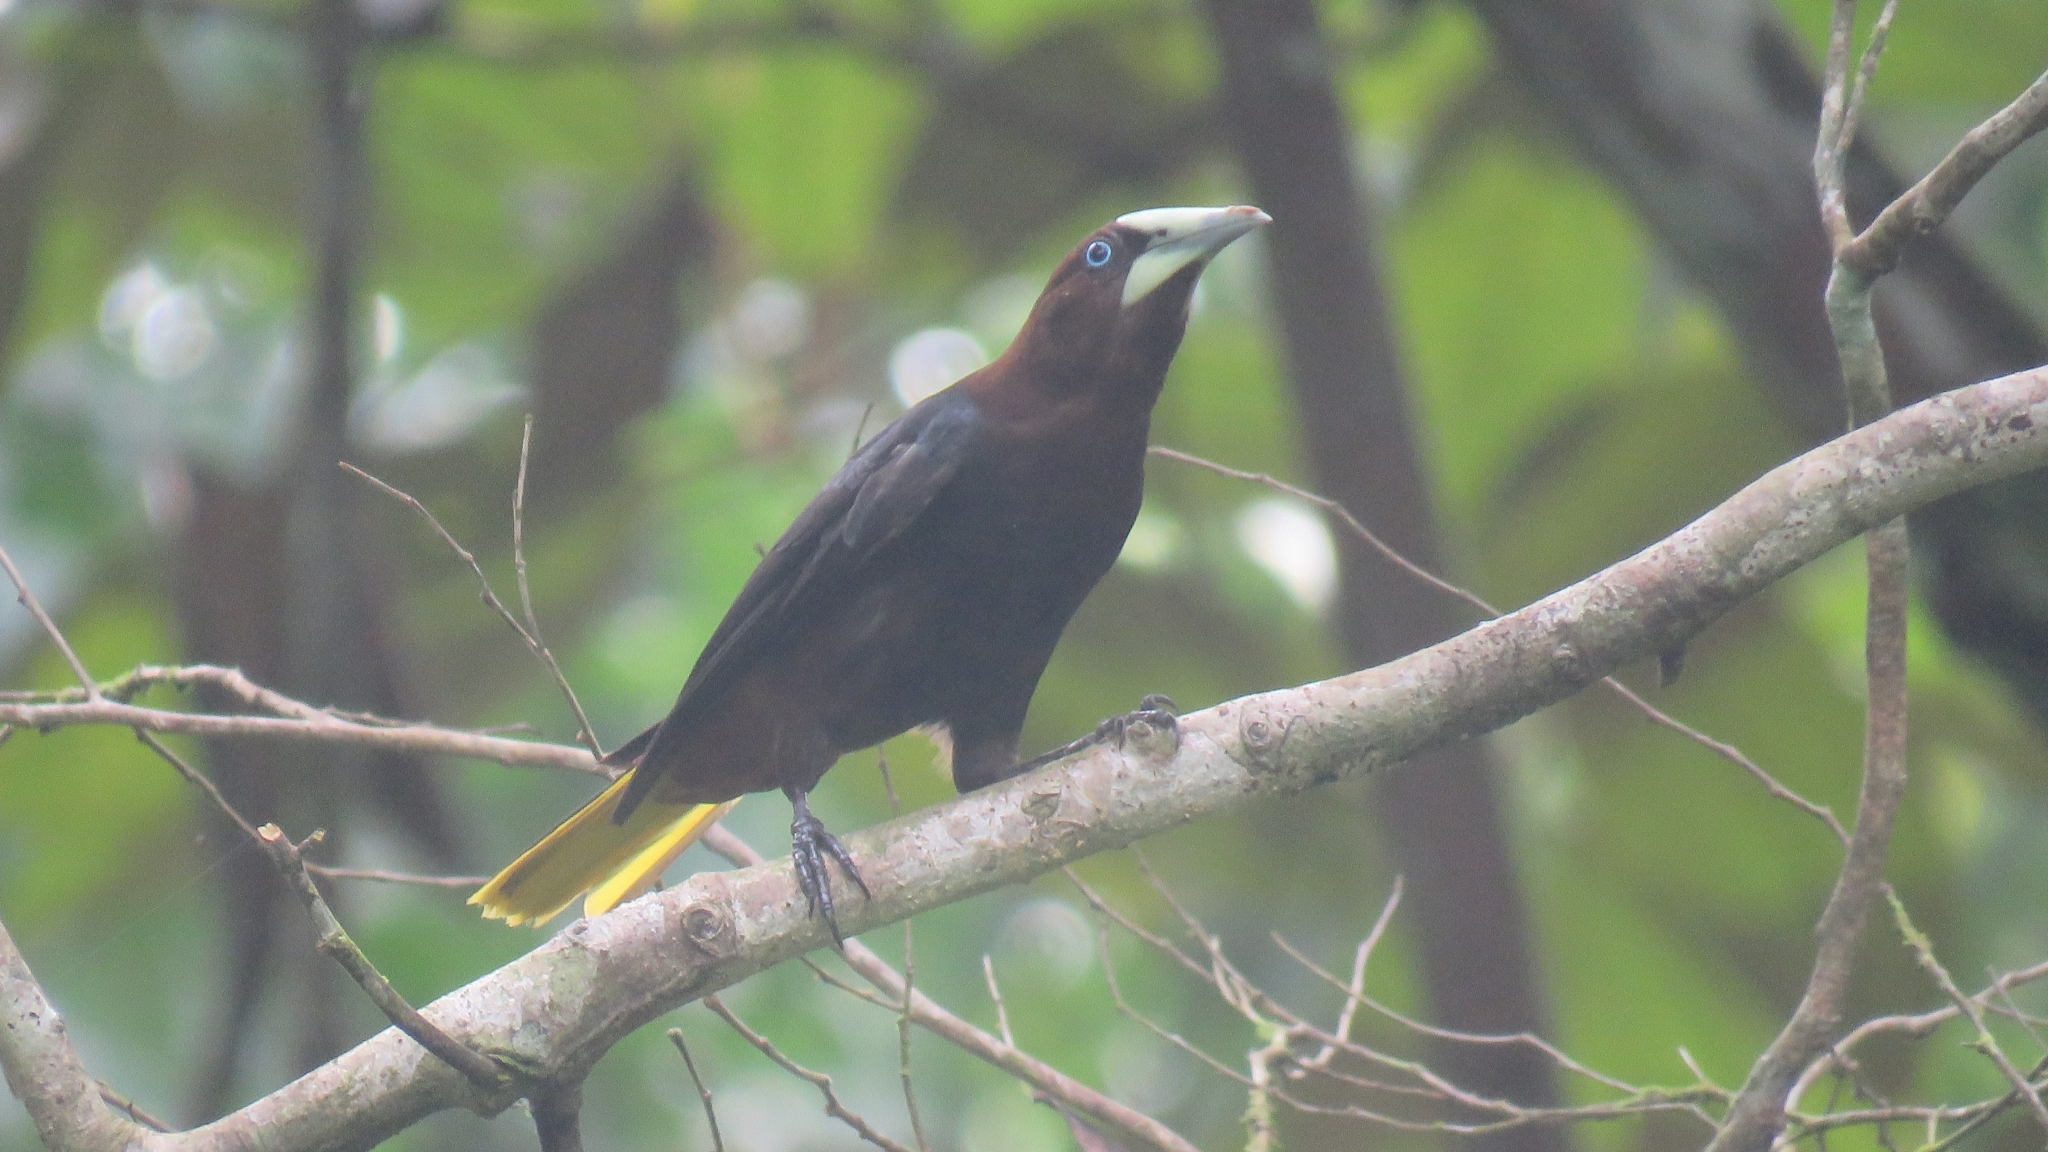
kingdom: Animalia
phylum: Chordata
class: Aves
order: Passeriformes
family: Icteridae
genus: Psarocolius
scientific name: Psarocolius wagleri
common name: Chestnut-headed oropendola
